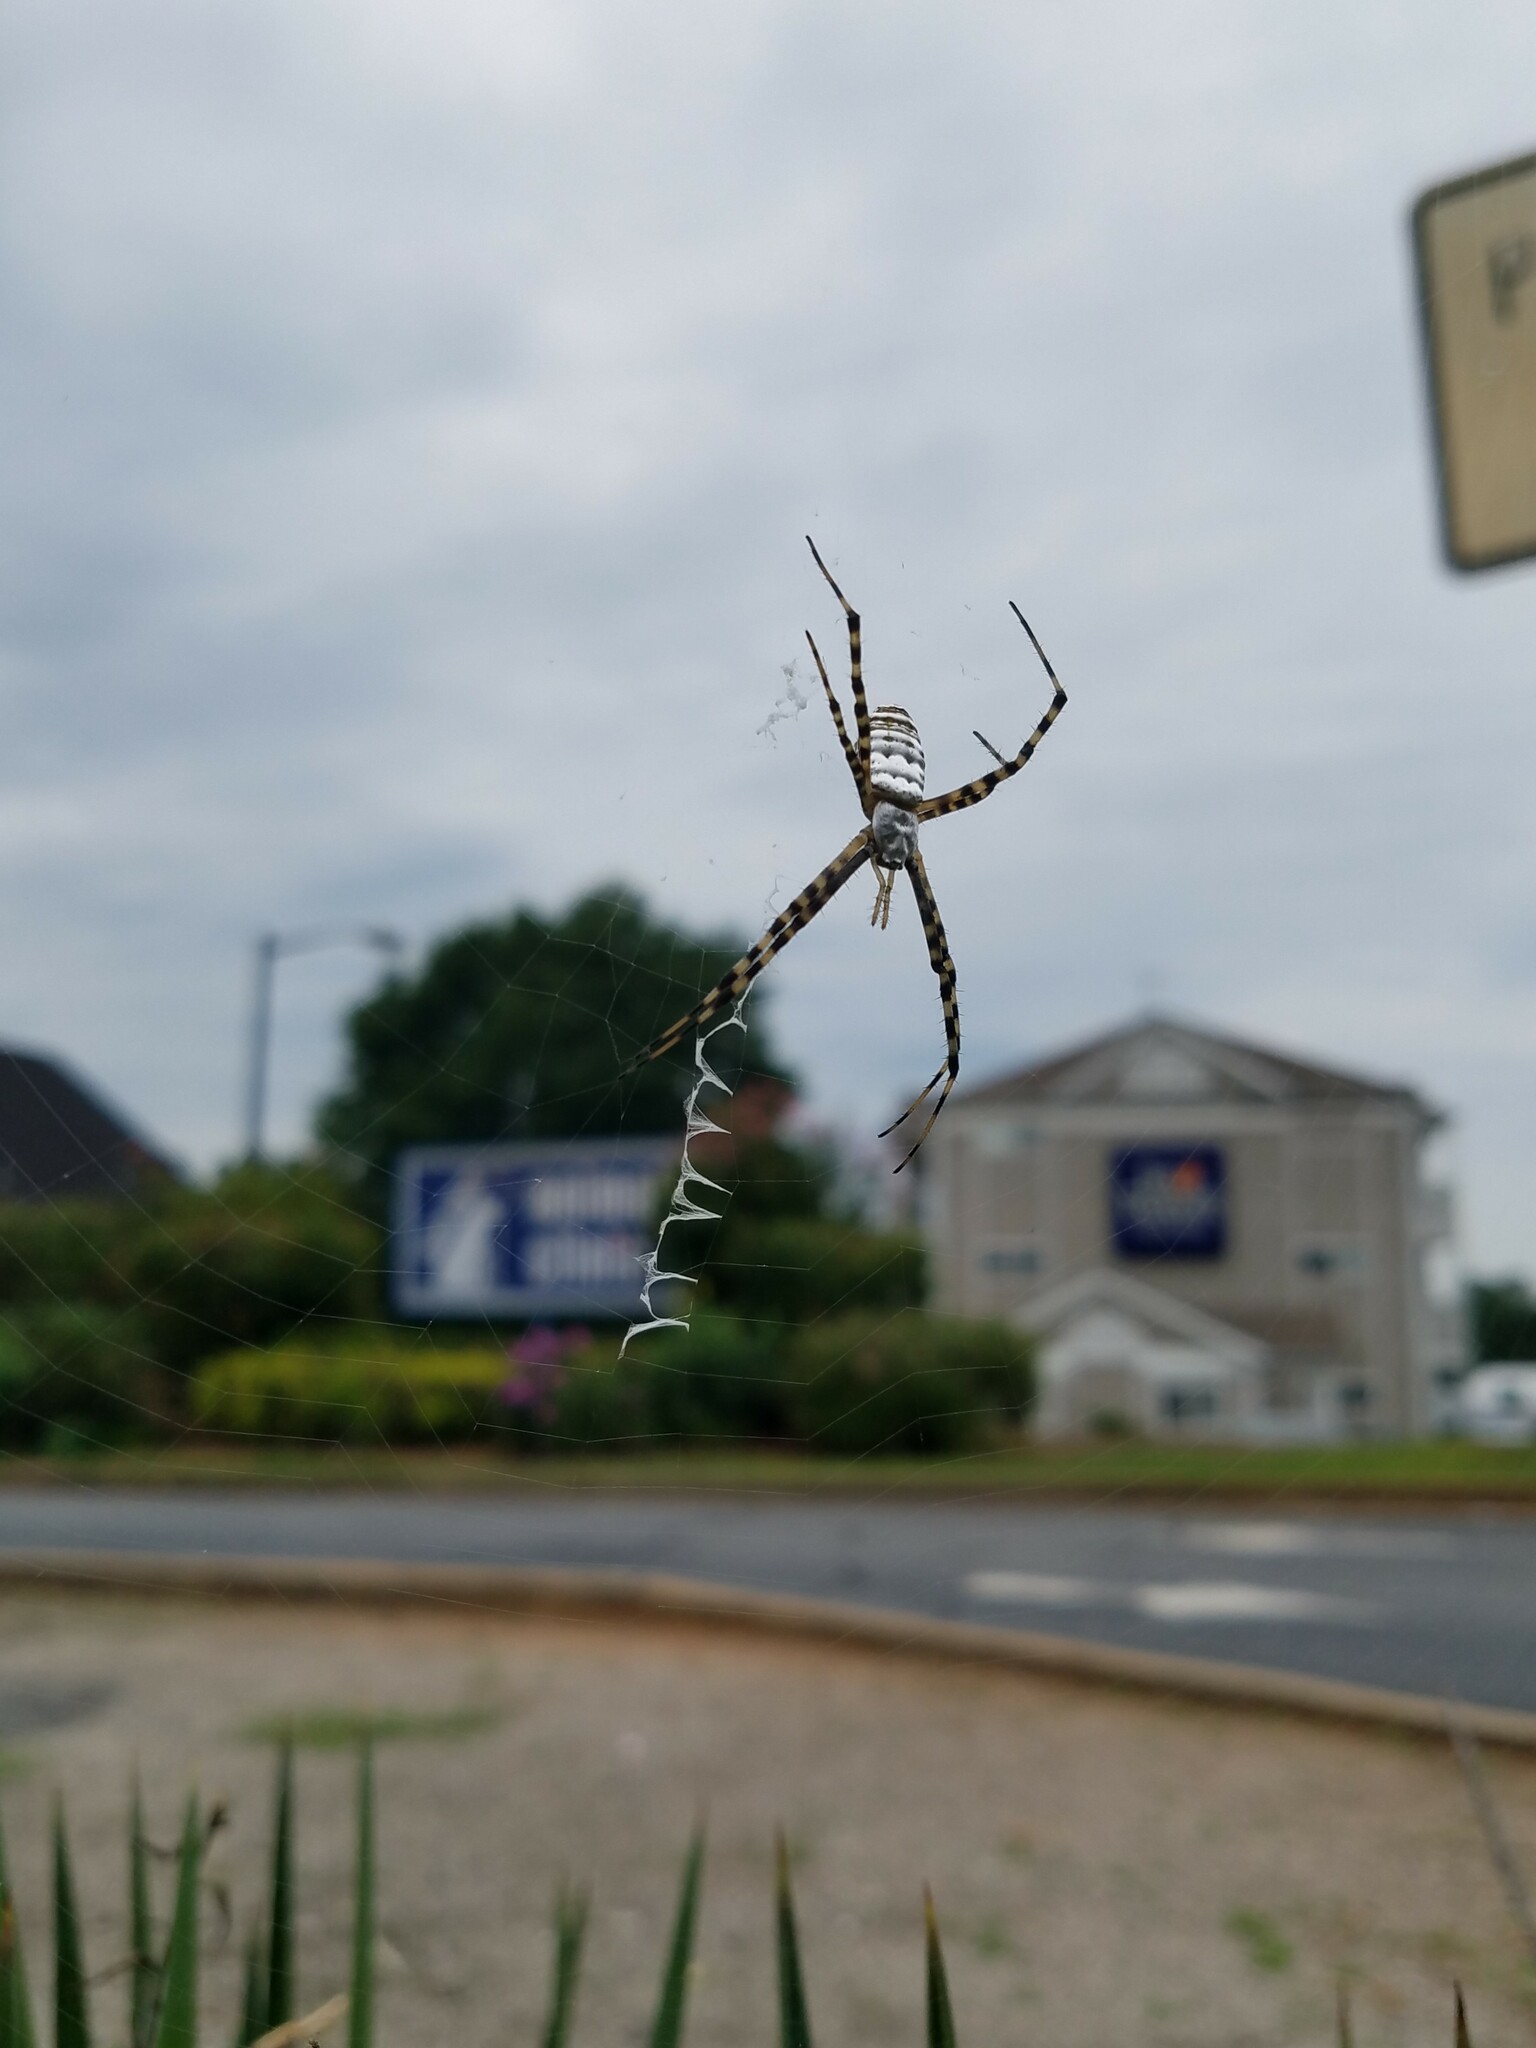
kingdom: Animalia
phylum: Arthropoda
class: Arachnida
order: Araneae
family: Araneidae
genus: Argiope
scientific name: Argiope trifasciata
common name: Banded garden spider
